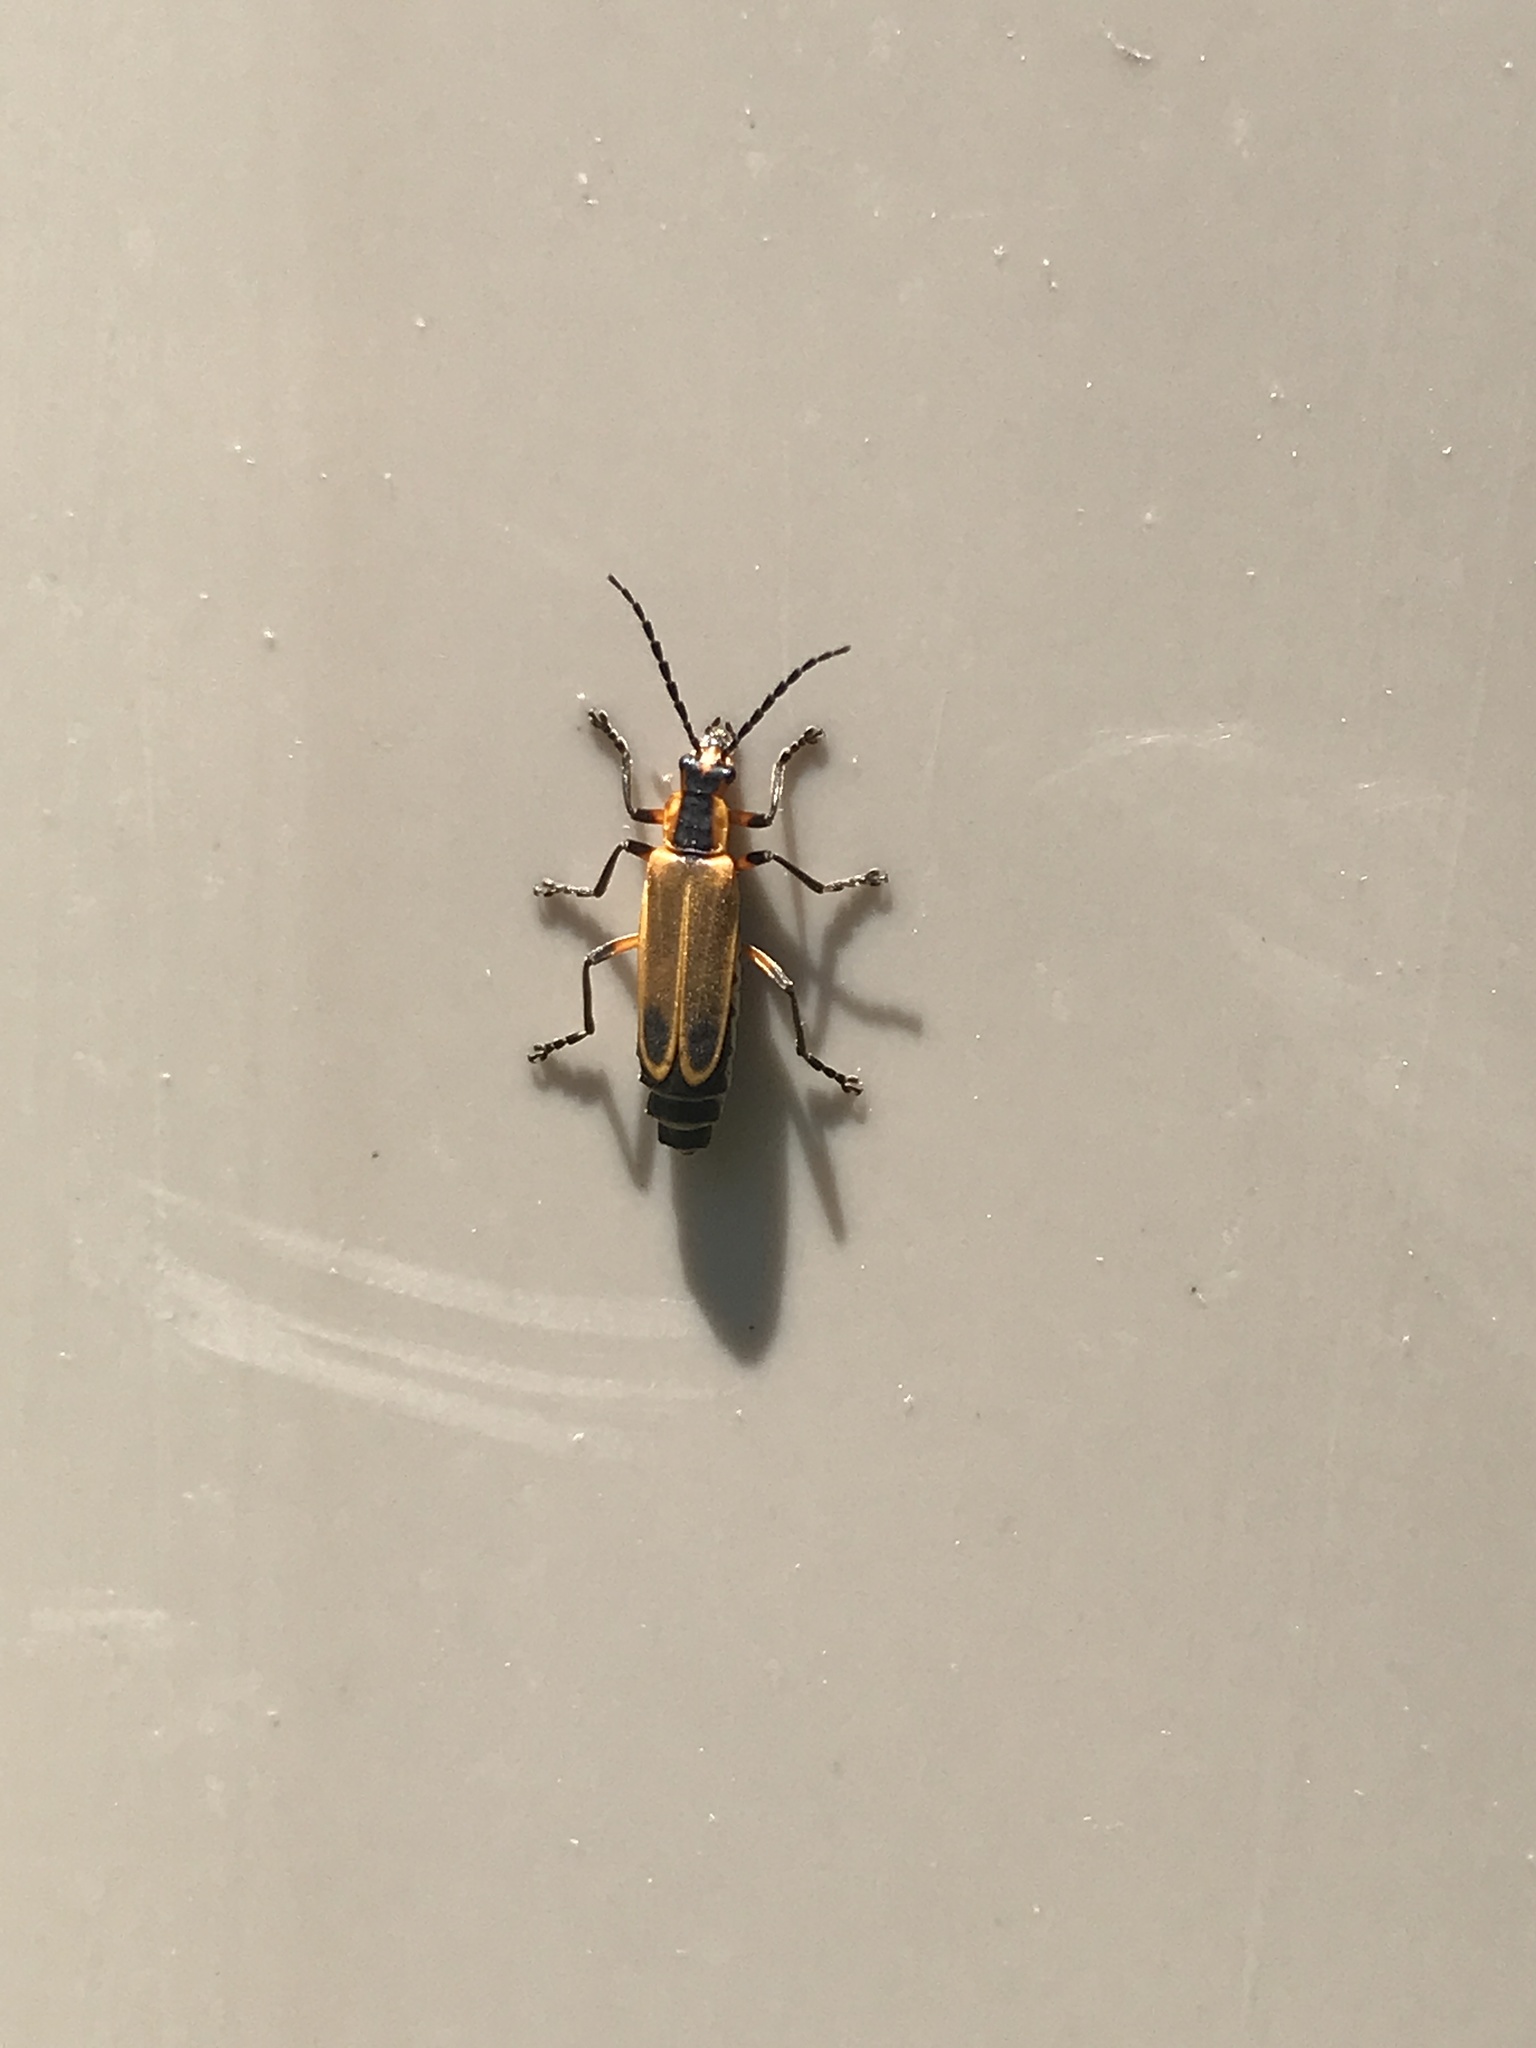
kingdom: Animalia
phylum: Arthropoda
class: Insecta
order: Coleoptera
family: Cantharidae
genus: Chauliognathus
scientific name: Chauliognathus marginatus
